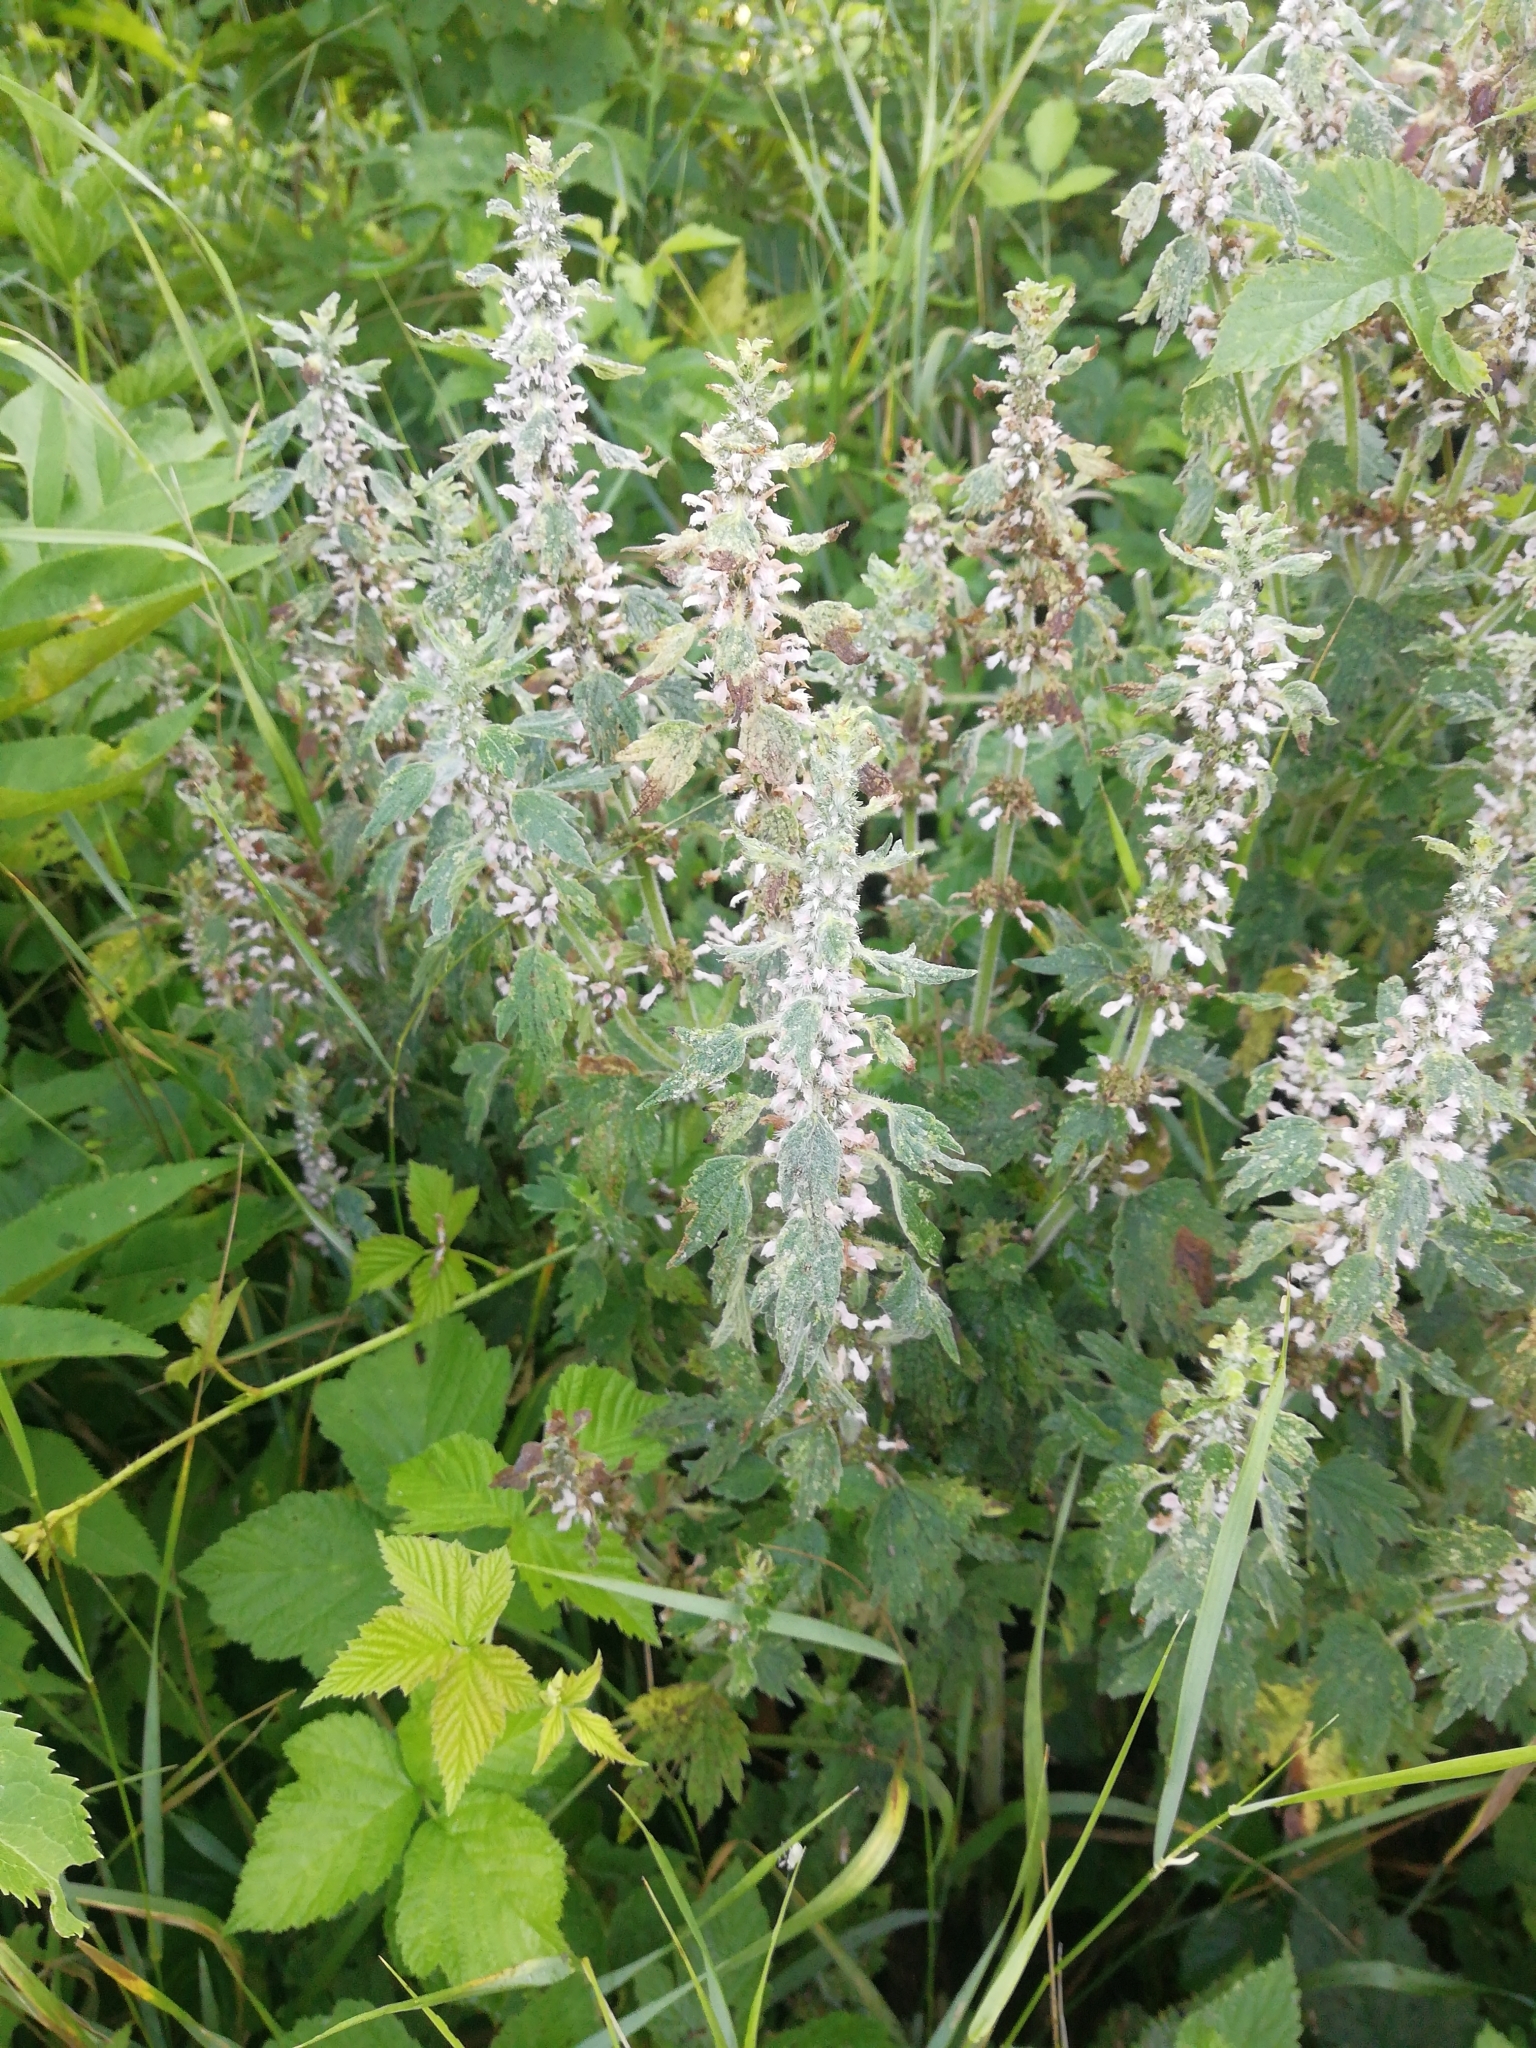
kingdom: Plantae
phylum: Tracheophyta
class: Magnoliopsida
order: Lamiales
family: Lamiaceae
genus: Leonurus
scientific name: Leonurus quinquelobatus
